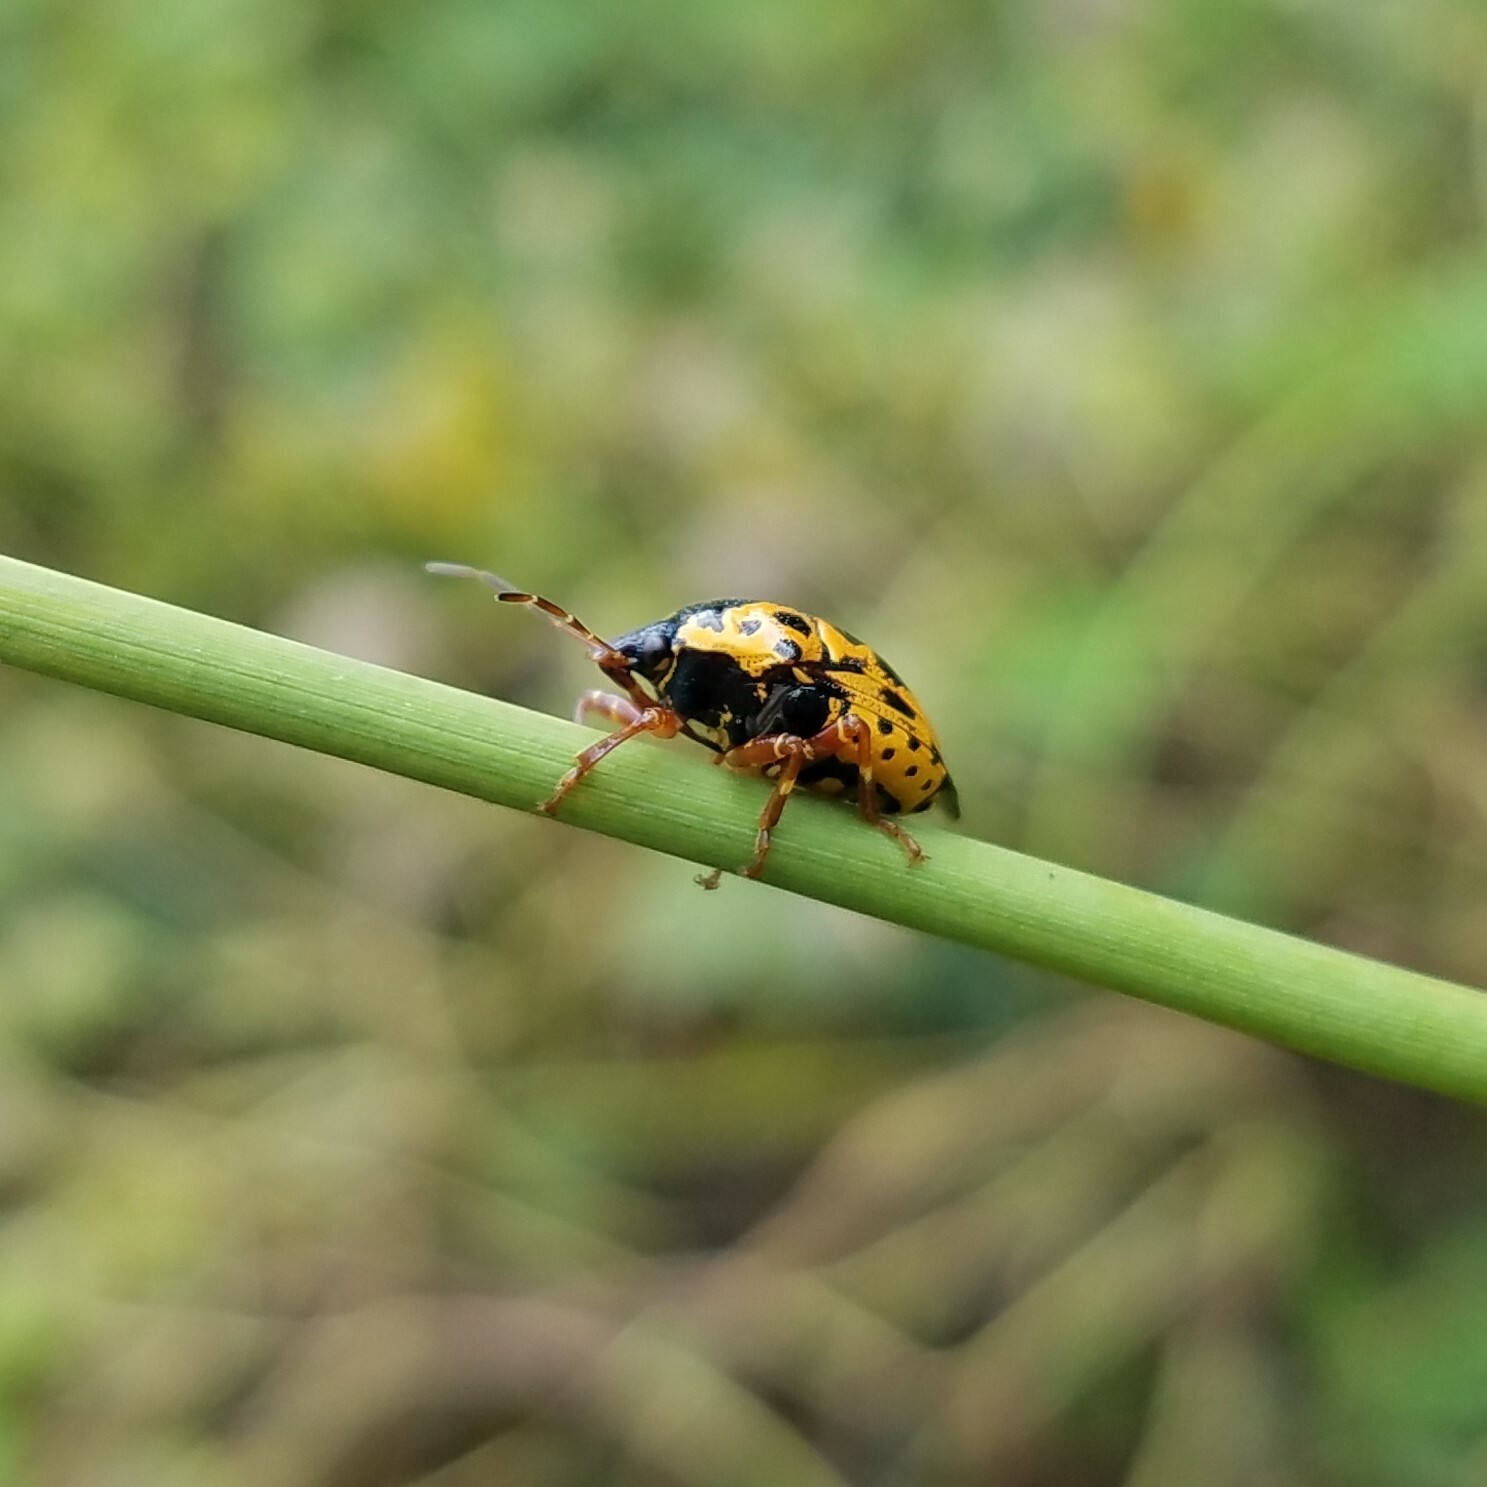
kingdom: Animalia
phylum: Arthropoda
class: Insecta
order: Hemiptera
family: Pentatomidae
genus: Stiretrus
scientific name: Stiretrus anchorago
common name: Anchor stink bug
